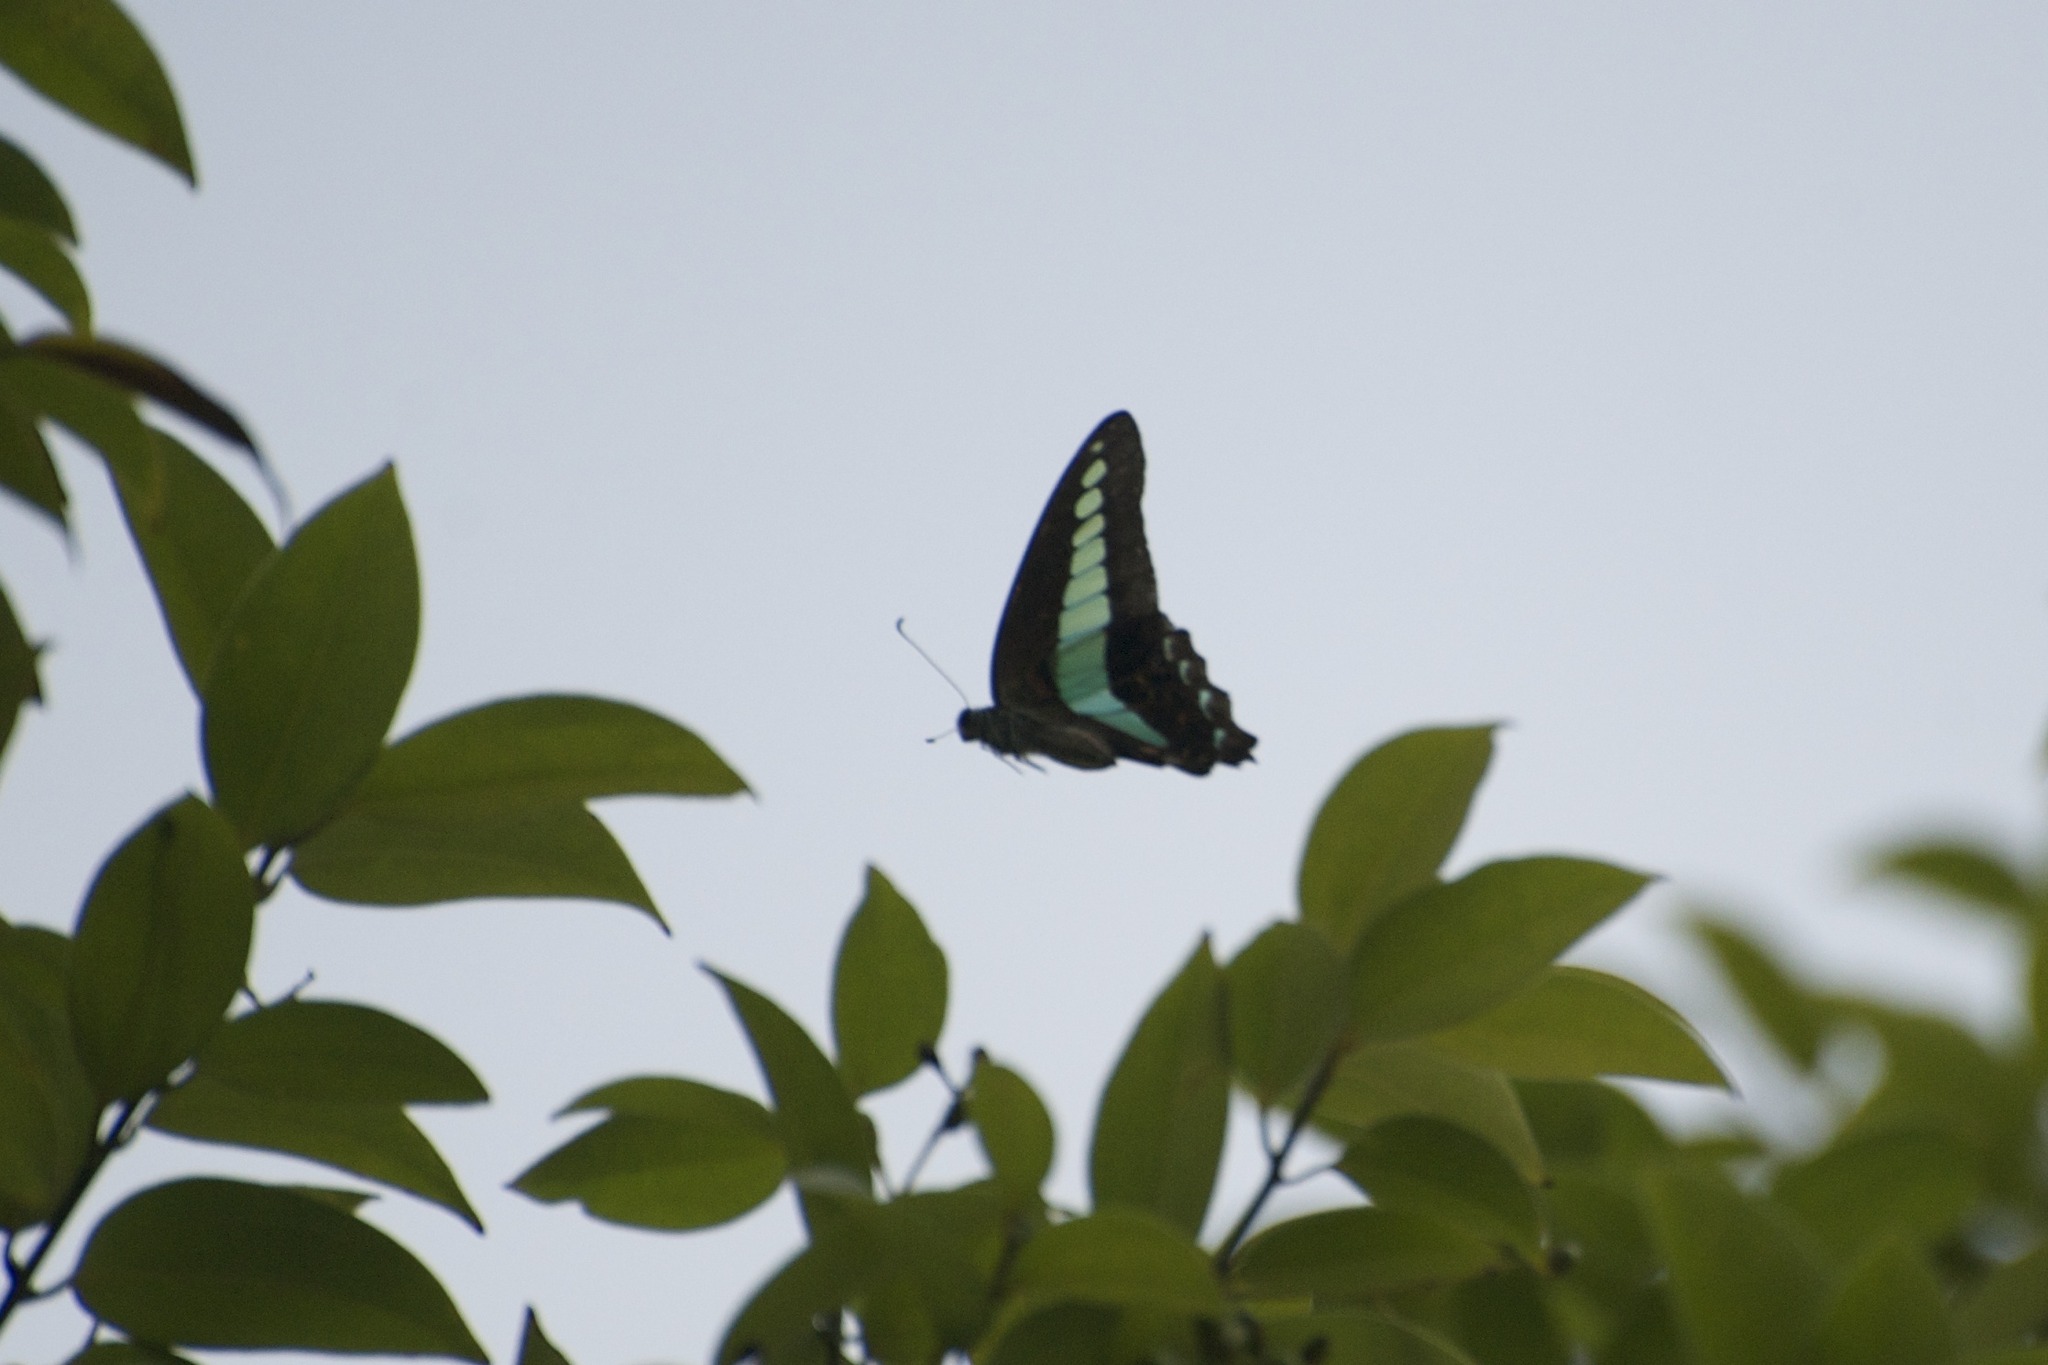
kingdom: Fungi
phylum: Ascomycota
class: Sordariomycetes
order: Microascales
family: Microascaceae
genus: Graphium
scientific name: Graphium sarpedon
